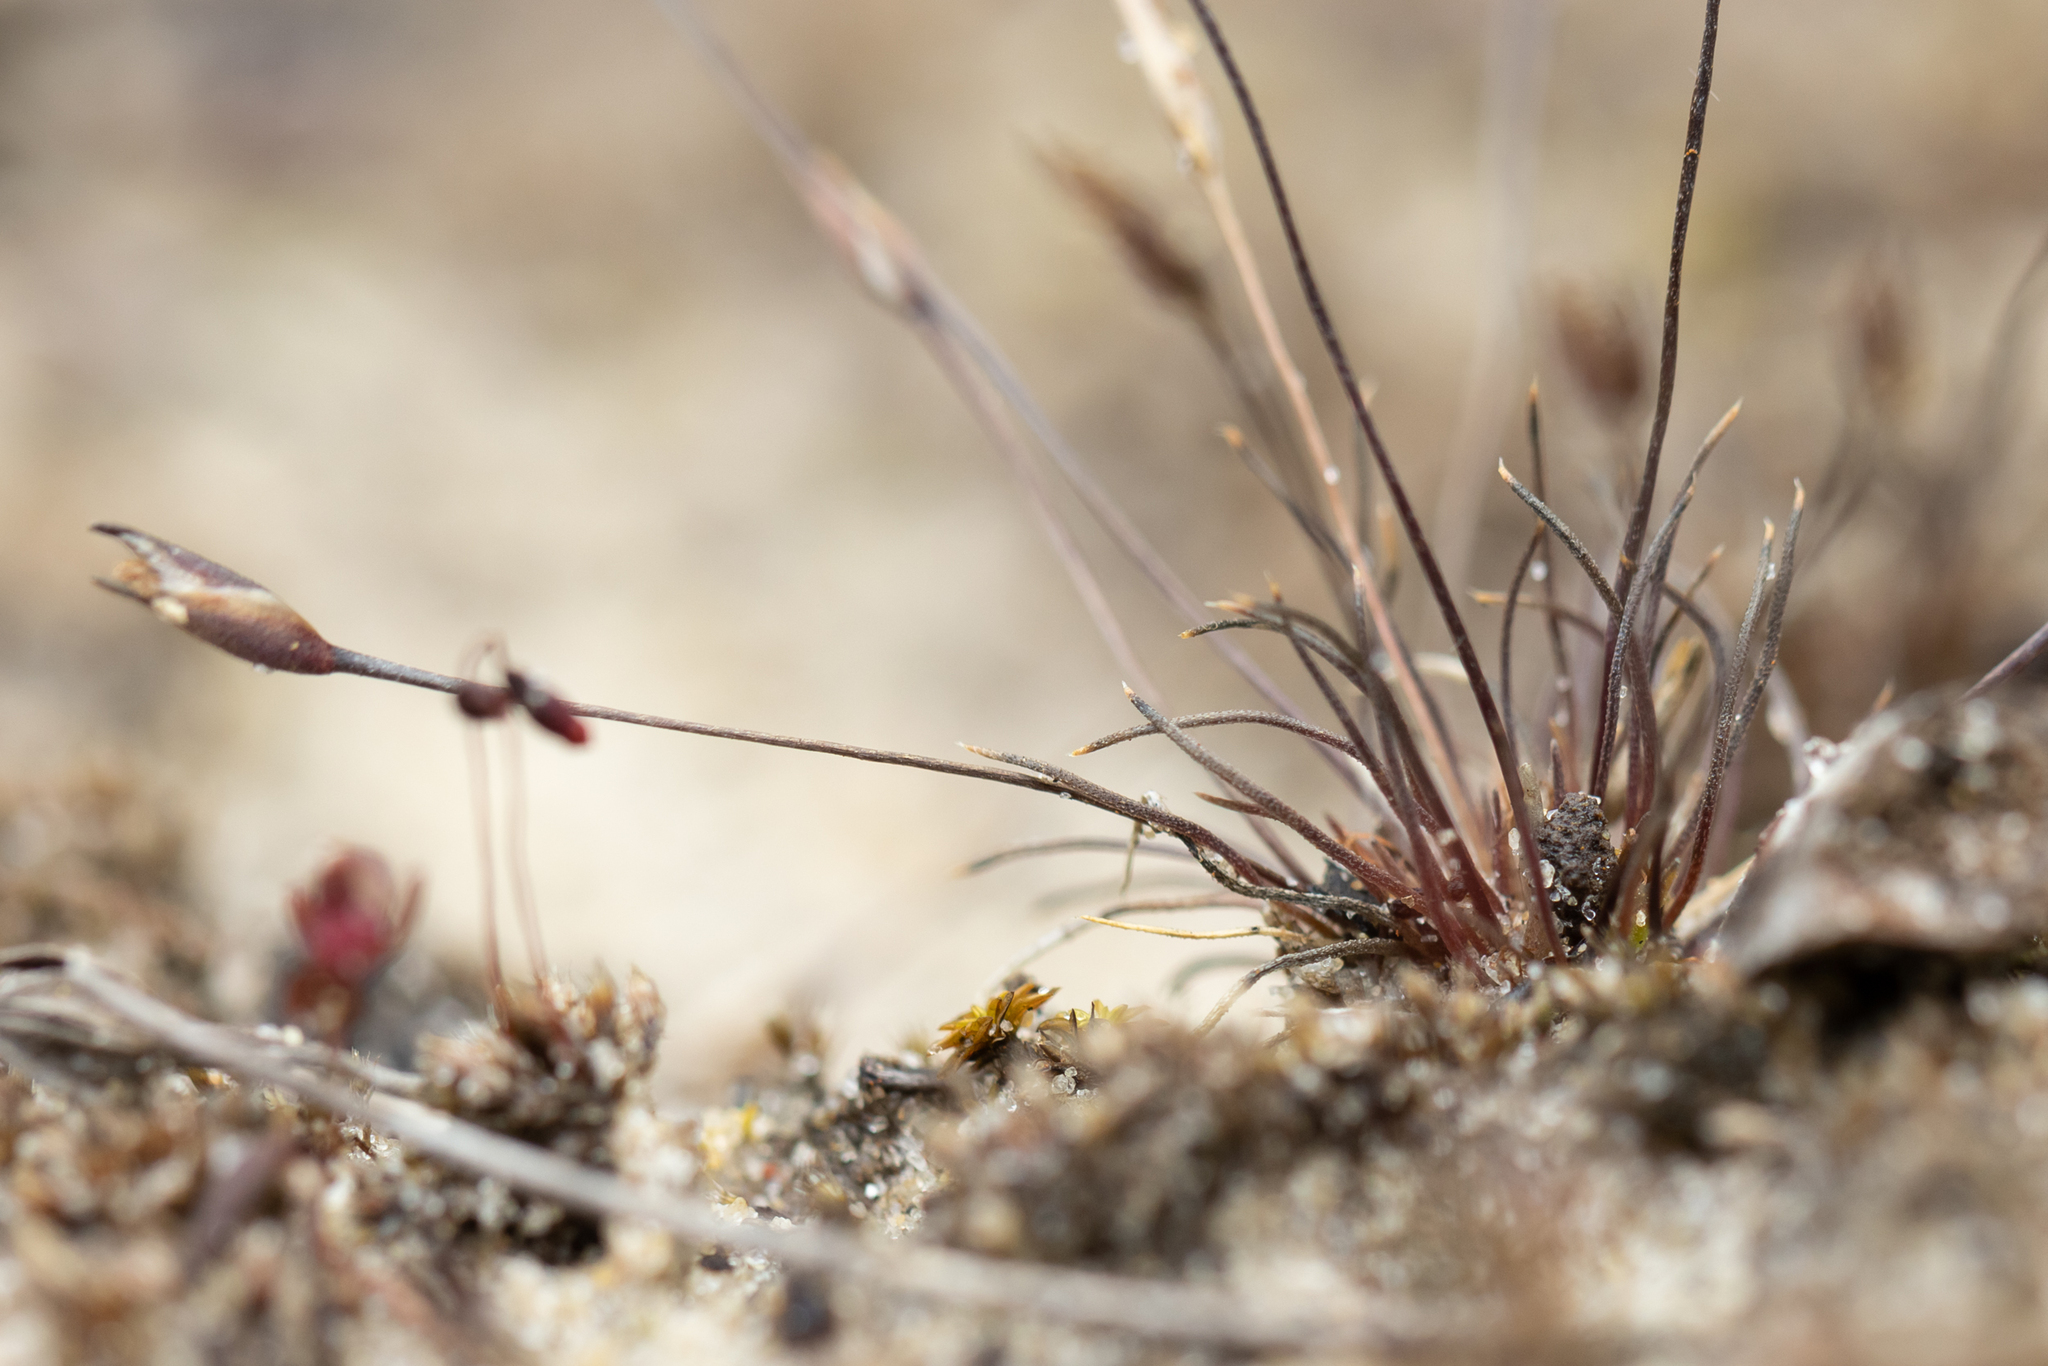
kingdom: Plantae
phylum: Tracheophyta
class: Liliopsida
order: Poales
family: Restionaceae
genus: Centrolepis
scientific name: Centrolepis glabra
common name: Smooth centrolepis
